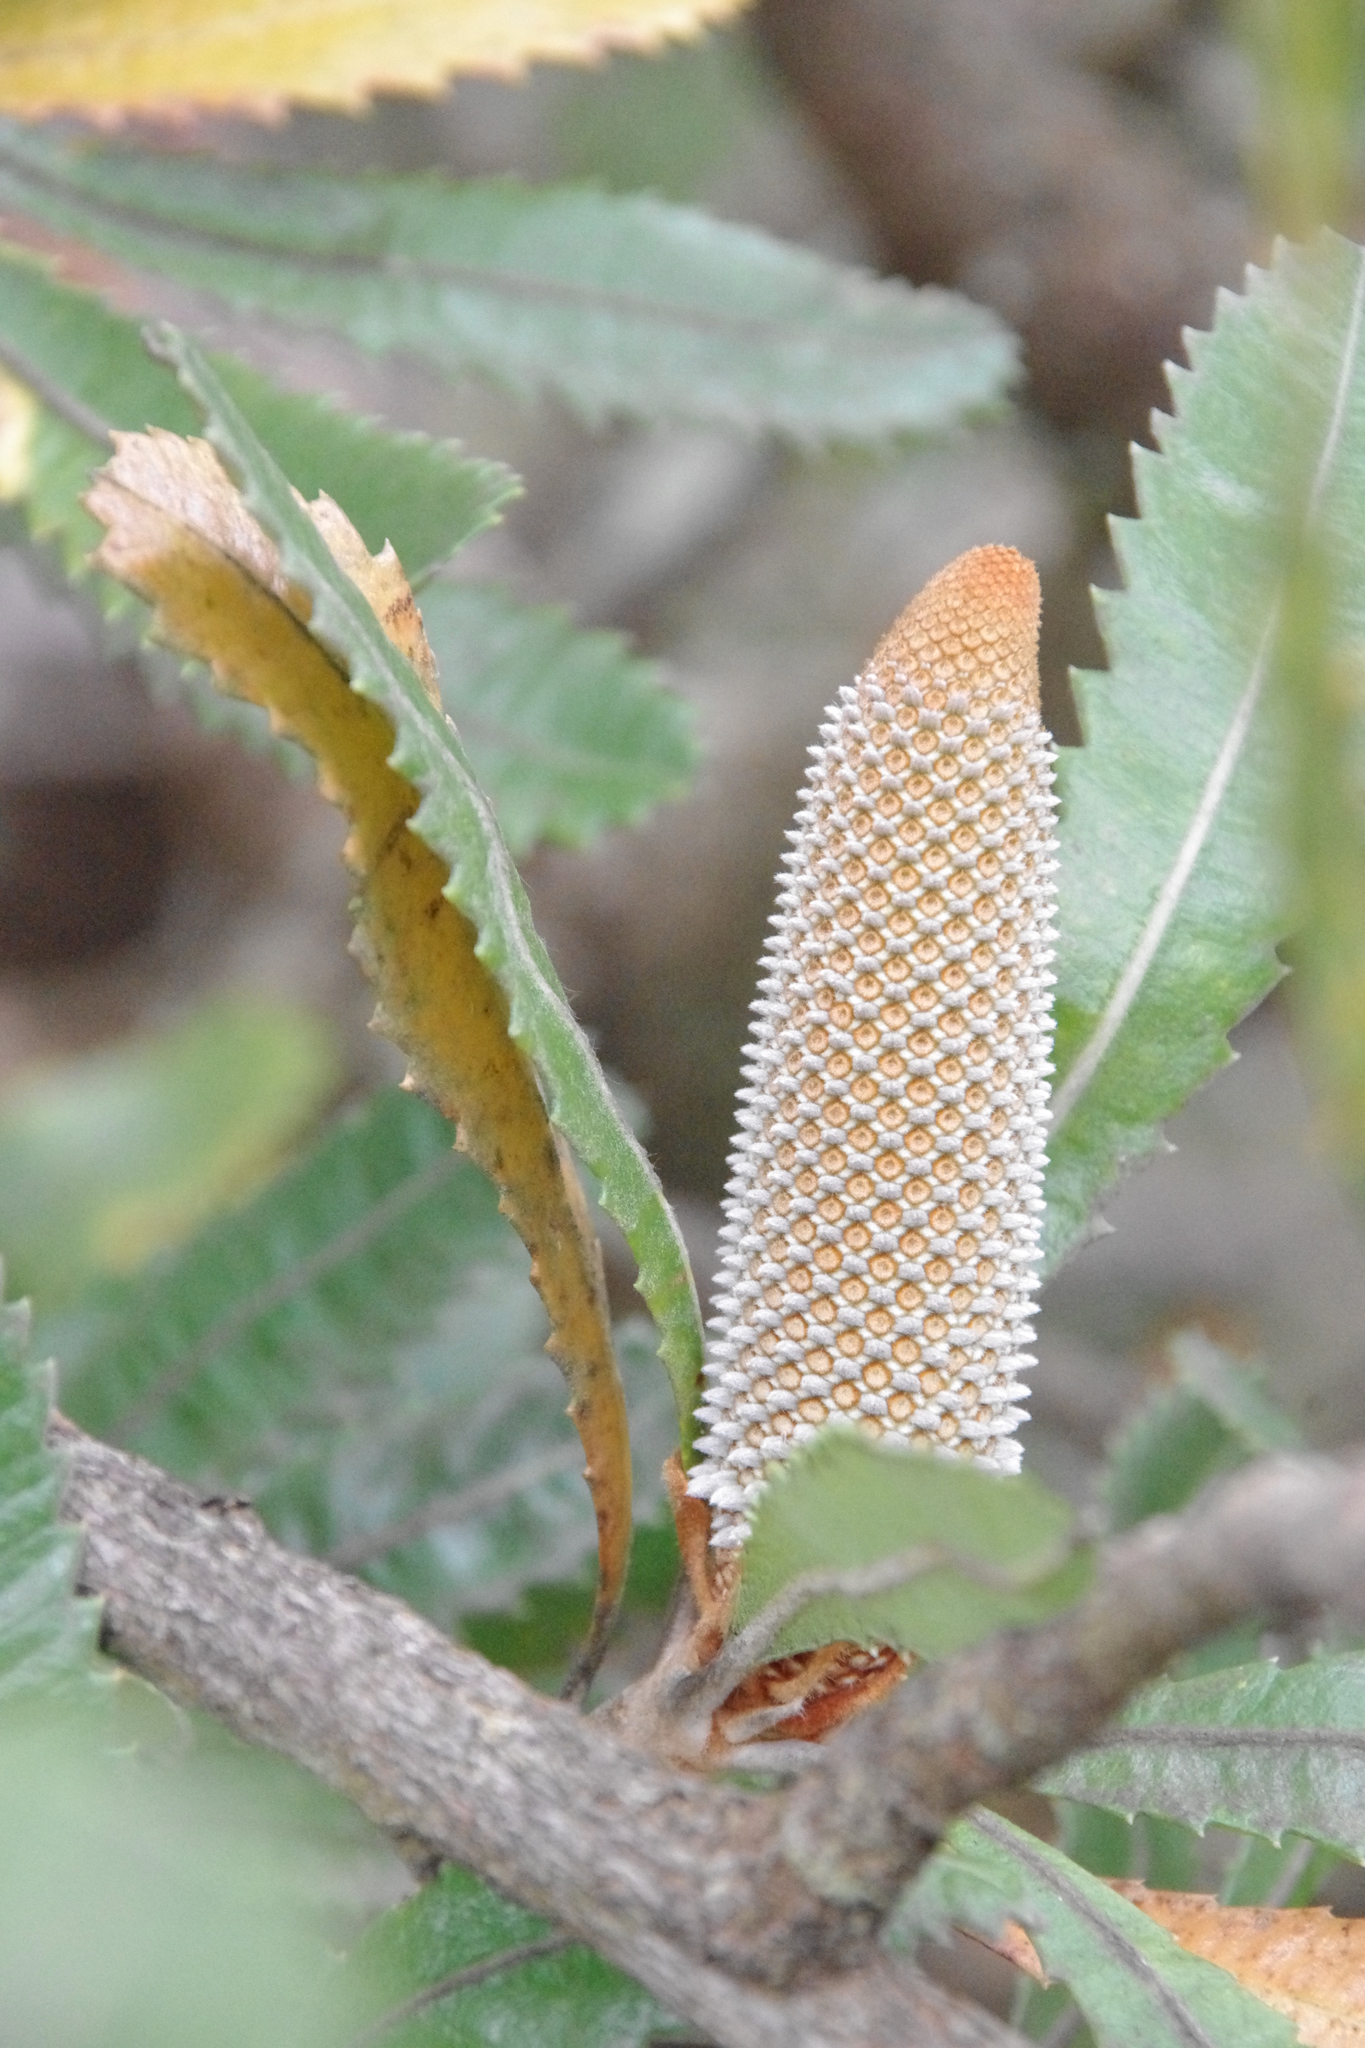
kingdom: Plantae
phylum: Tracheophyta
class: Magnoliopsida
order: Proteales
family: Proteaceae
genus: Banksia
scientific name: Banksia serrata
